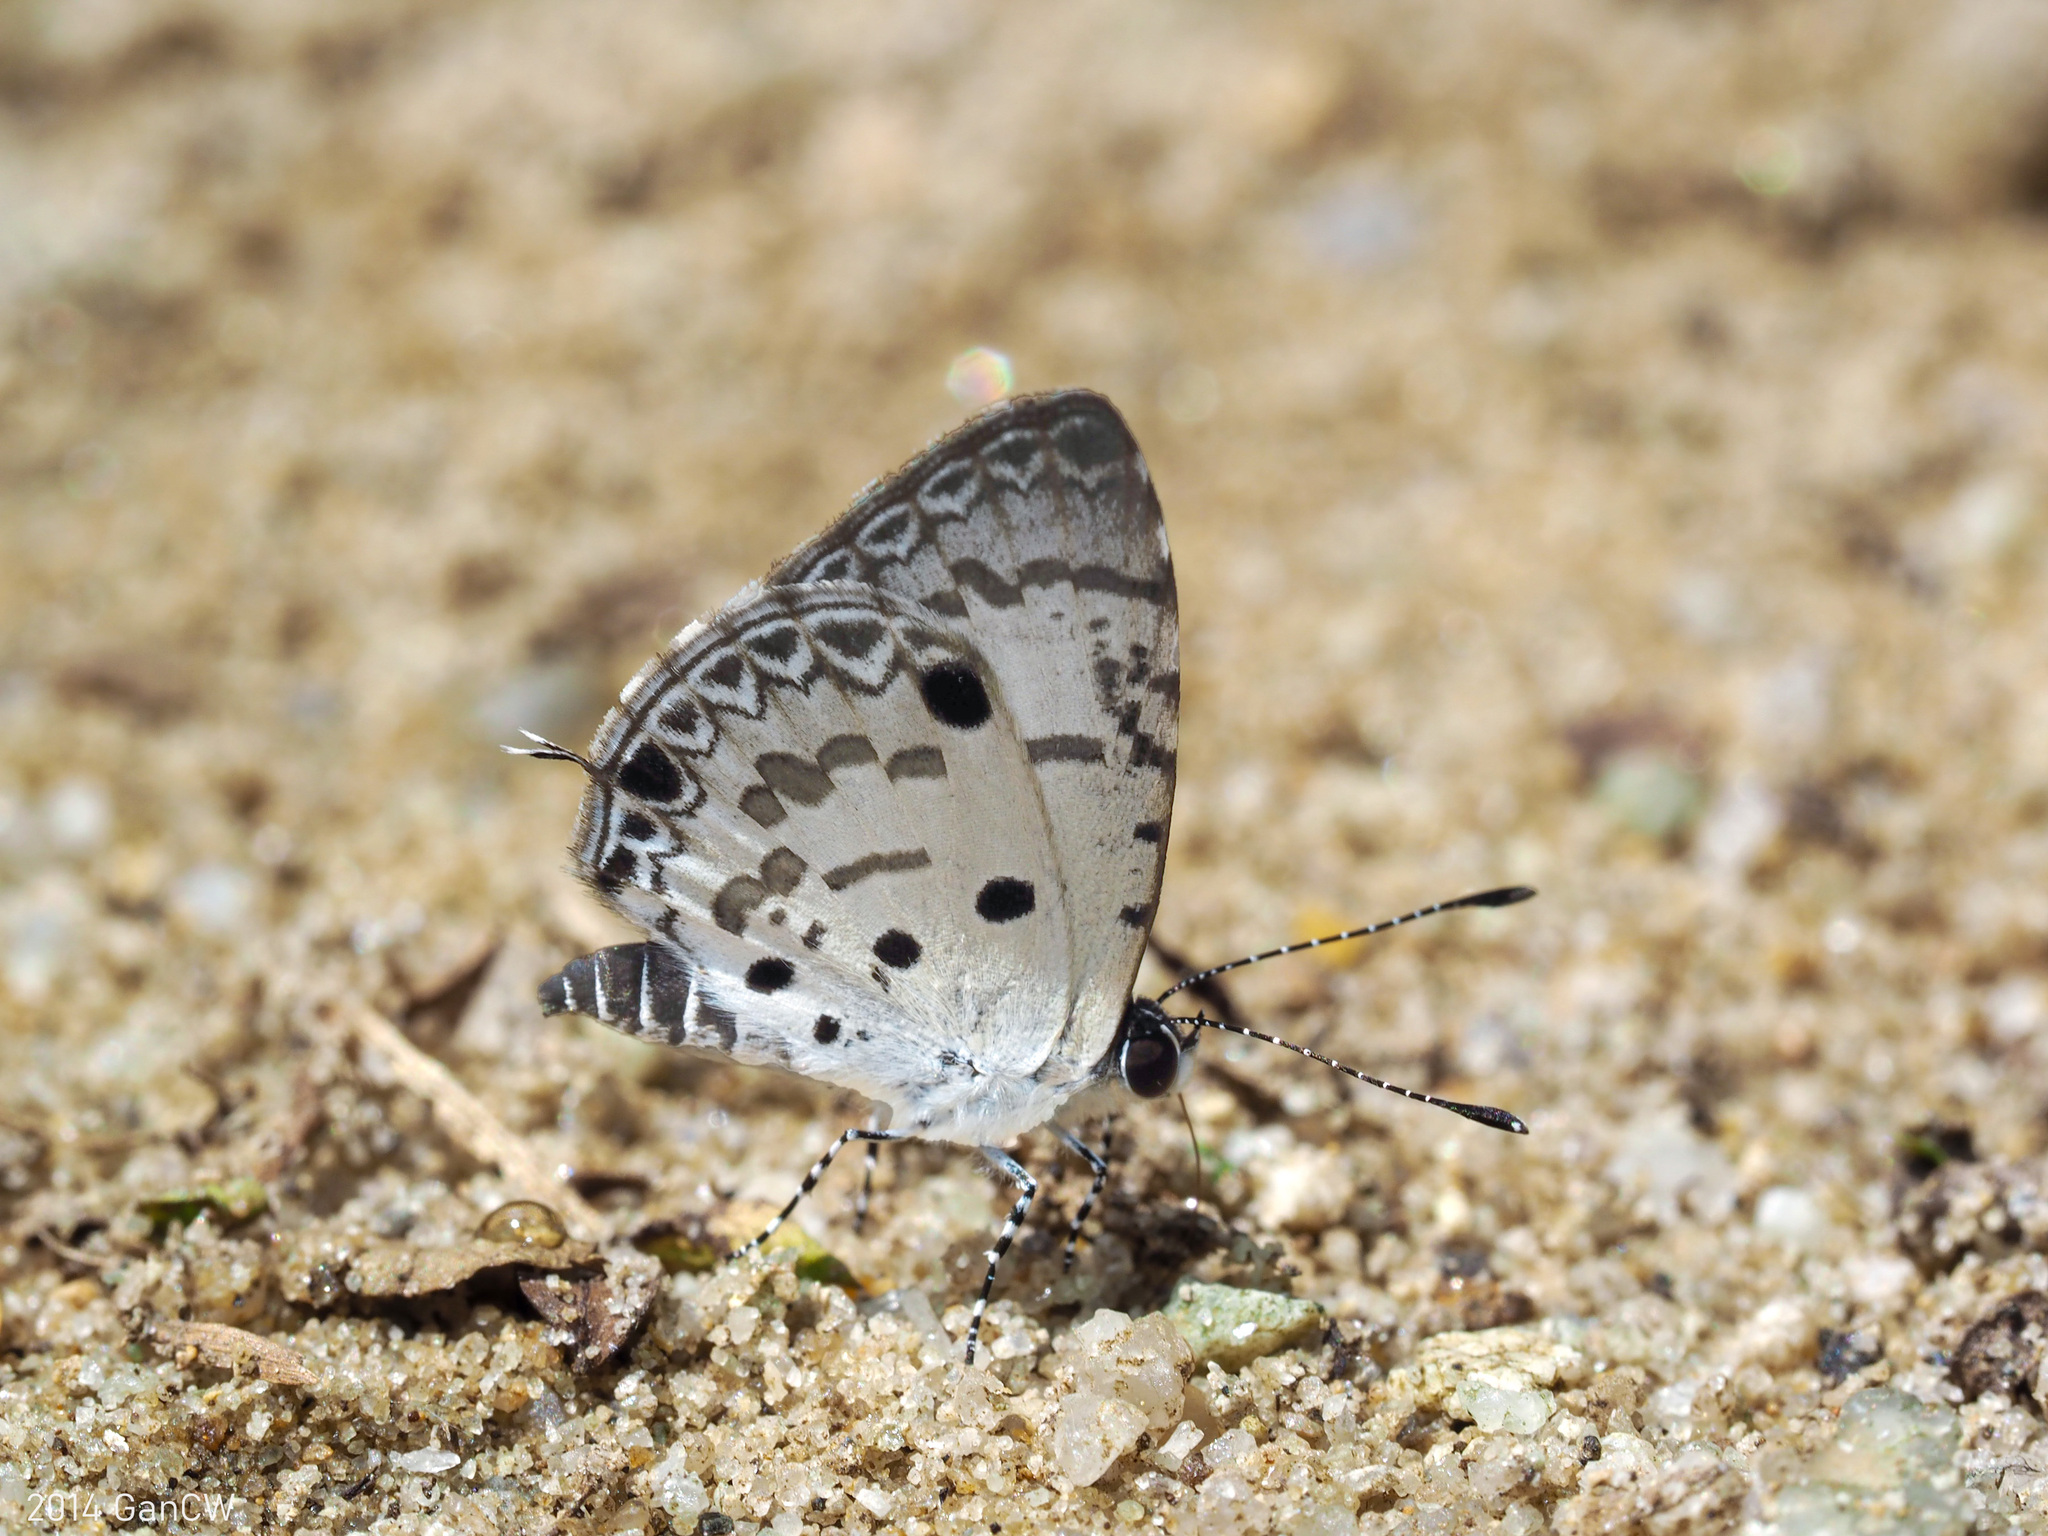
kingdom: Animalia
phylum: Arthropoda
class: Insecta
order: Lepidoptera
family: Lycaenidae
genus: Megisba
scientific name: Megisba malaya
